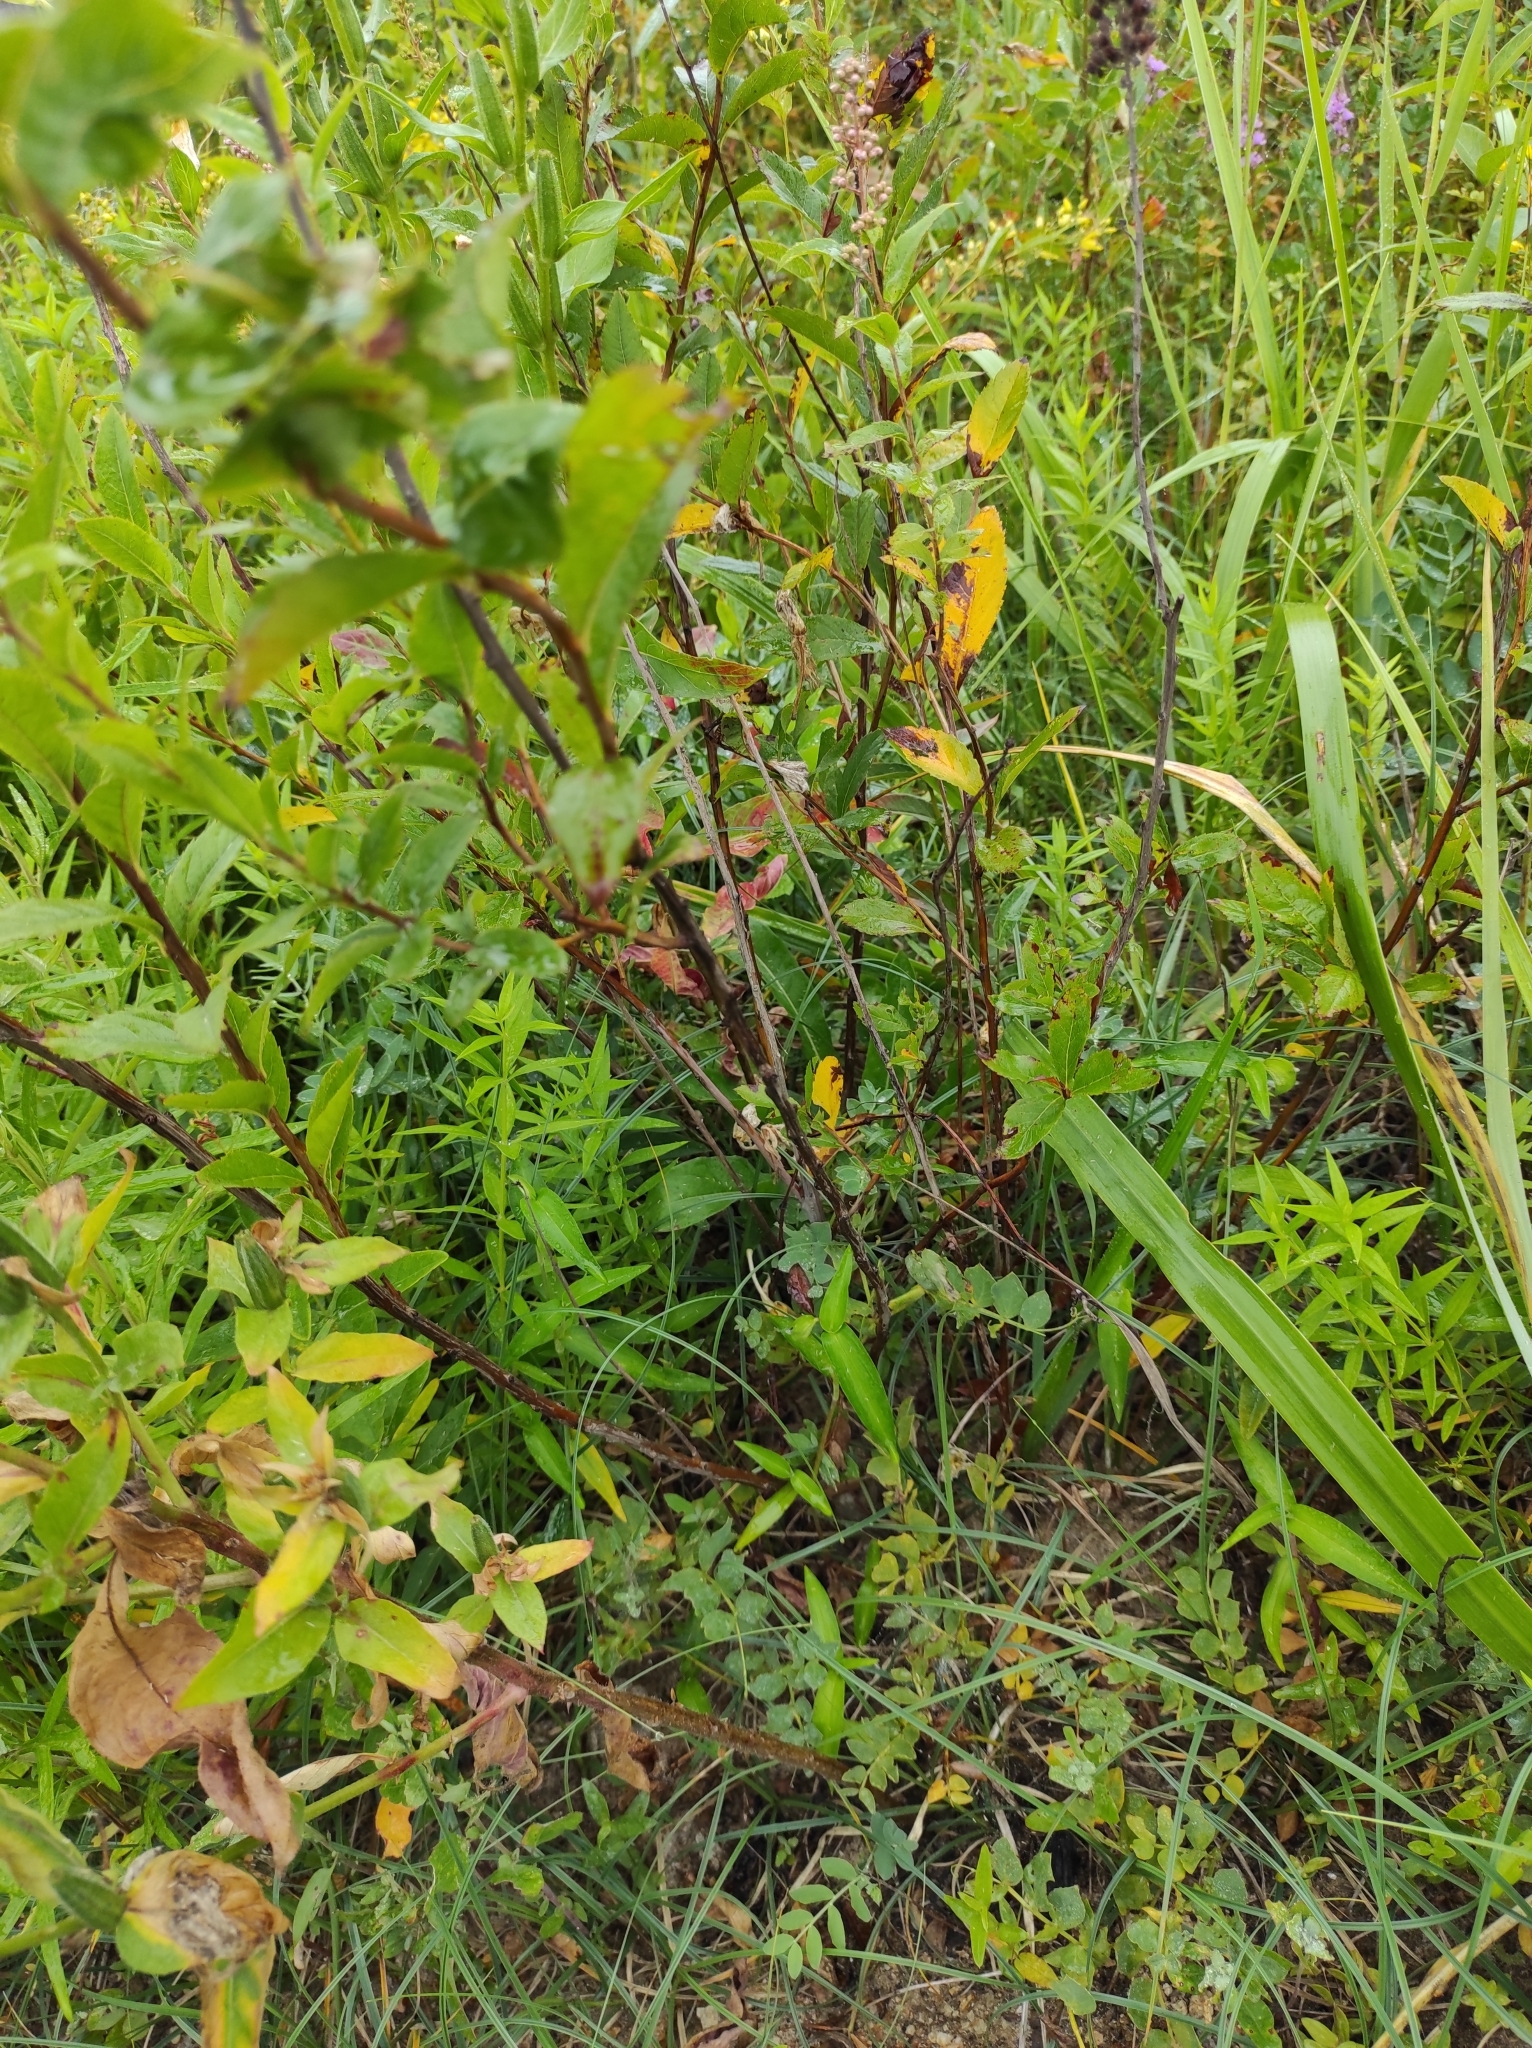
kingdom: Plantae
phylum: Tracheophyta
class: Magnoliopsida
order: Rosales
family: Rosaceae
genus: Spiraea
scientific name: Spiraea salicifolia
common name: Bridewort
